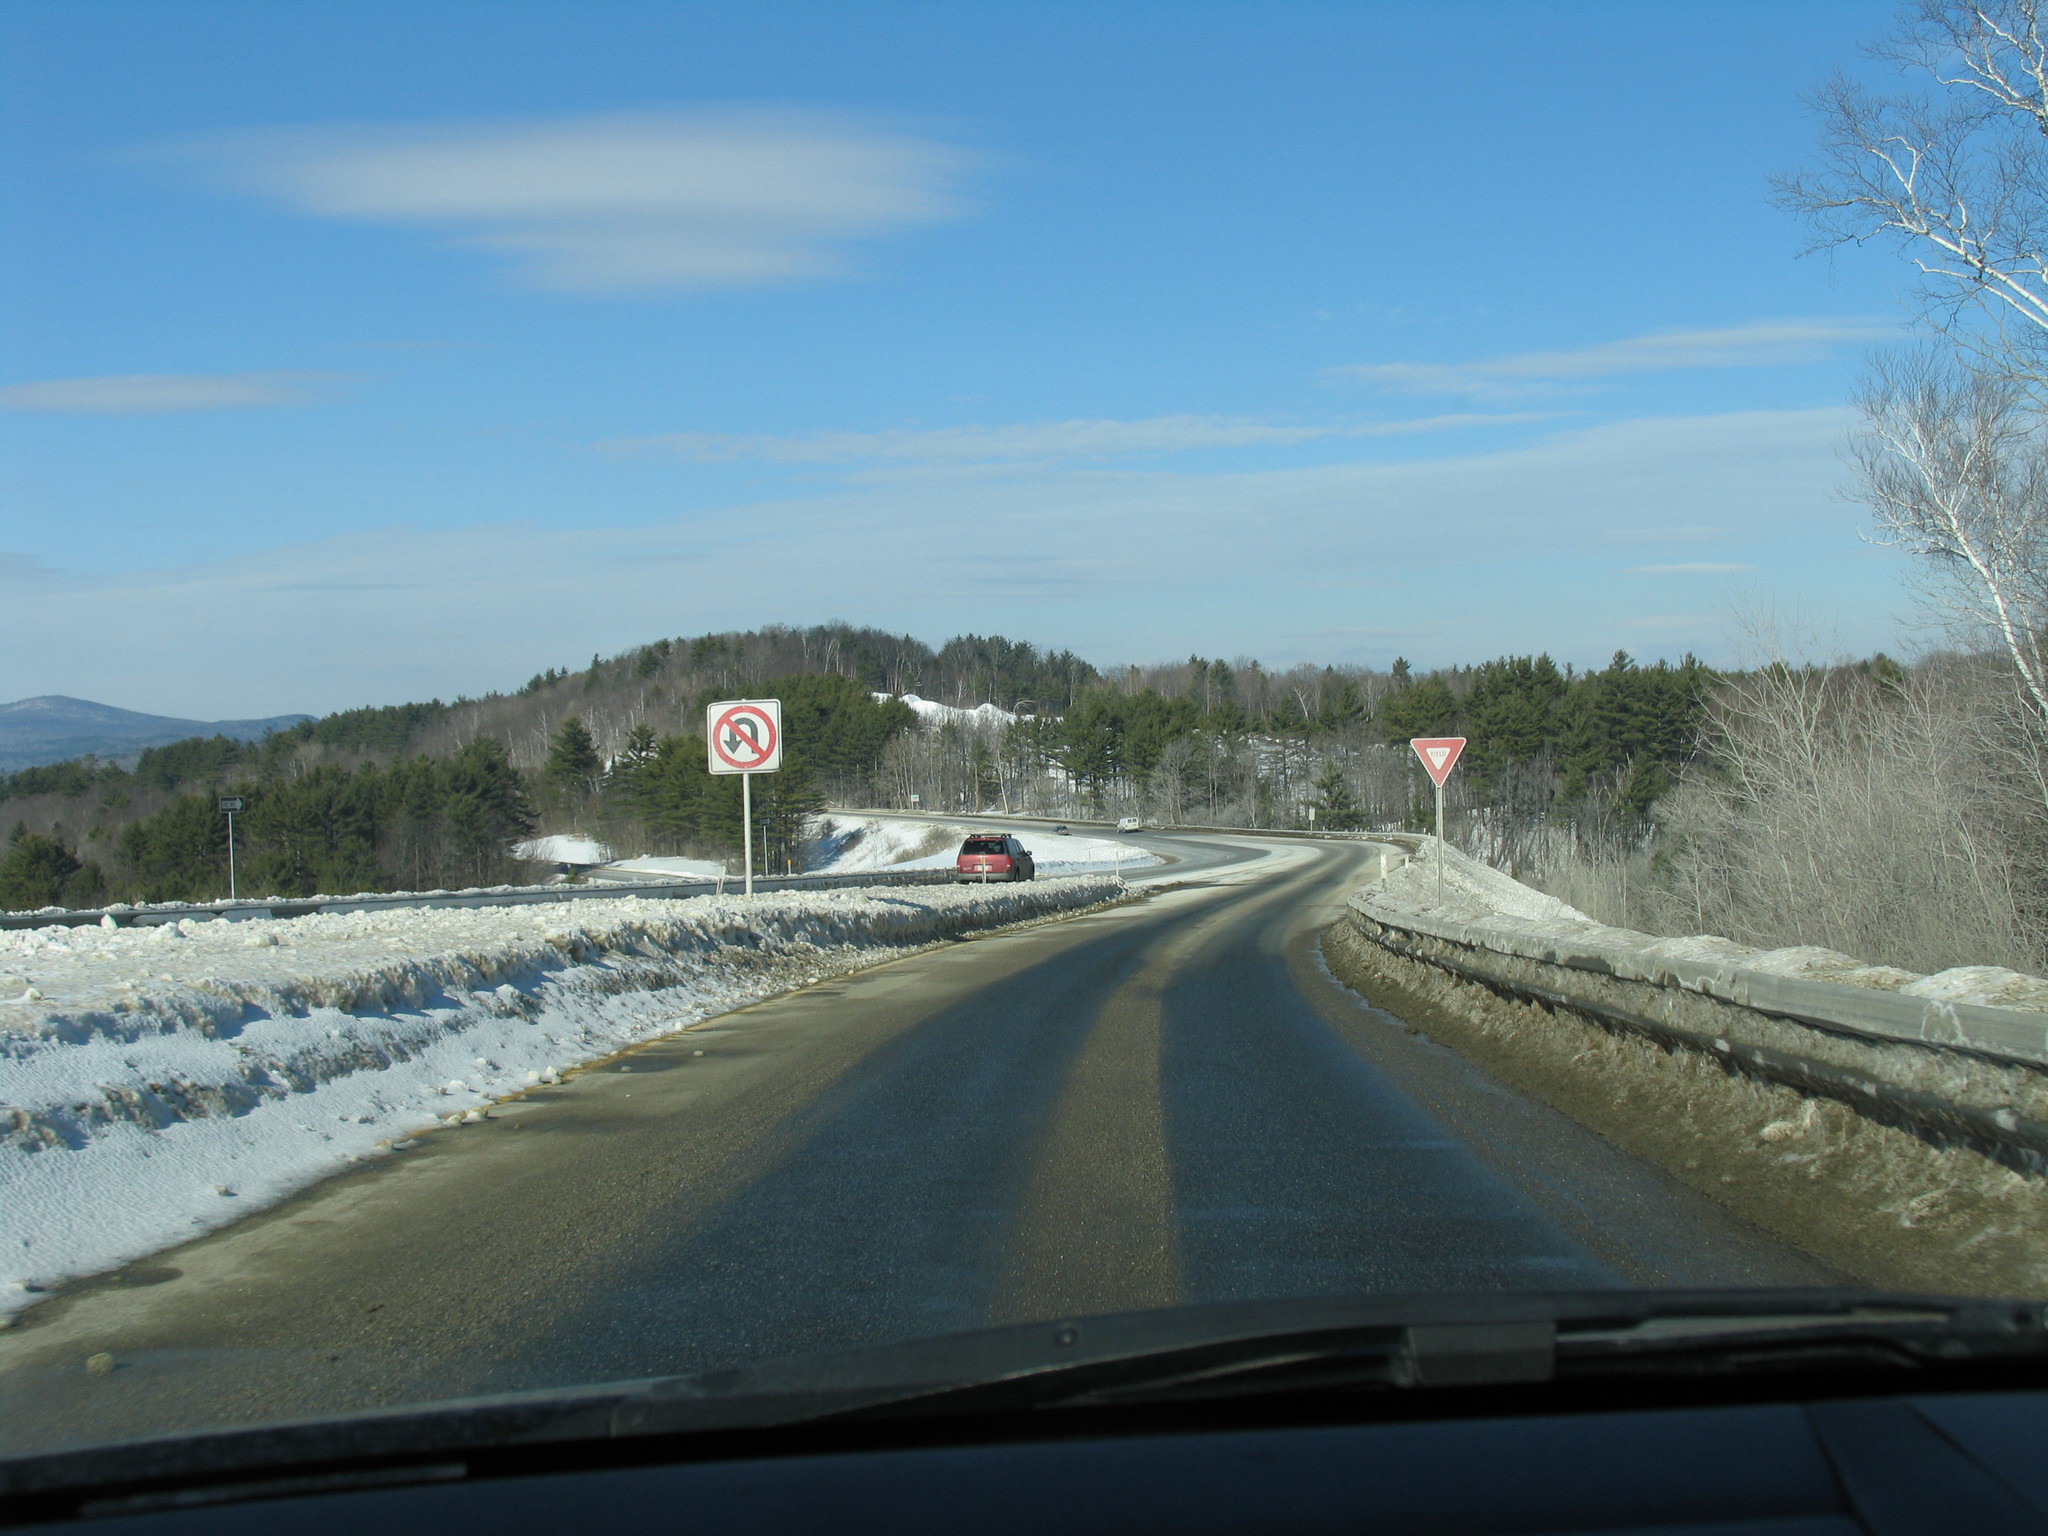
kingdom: Plantae
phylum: Tracheophyta
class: Pinopsida
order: Pinales
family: Pinaceae
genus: Pinus
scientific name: Pinus strobus
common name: Weymouth pine
